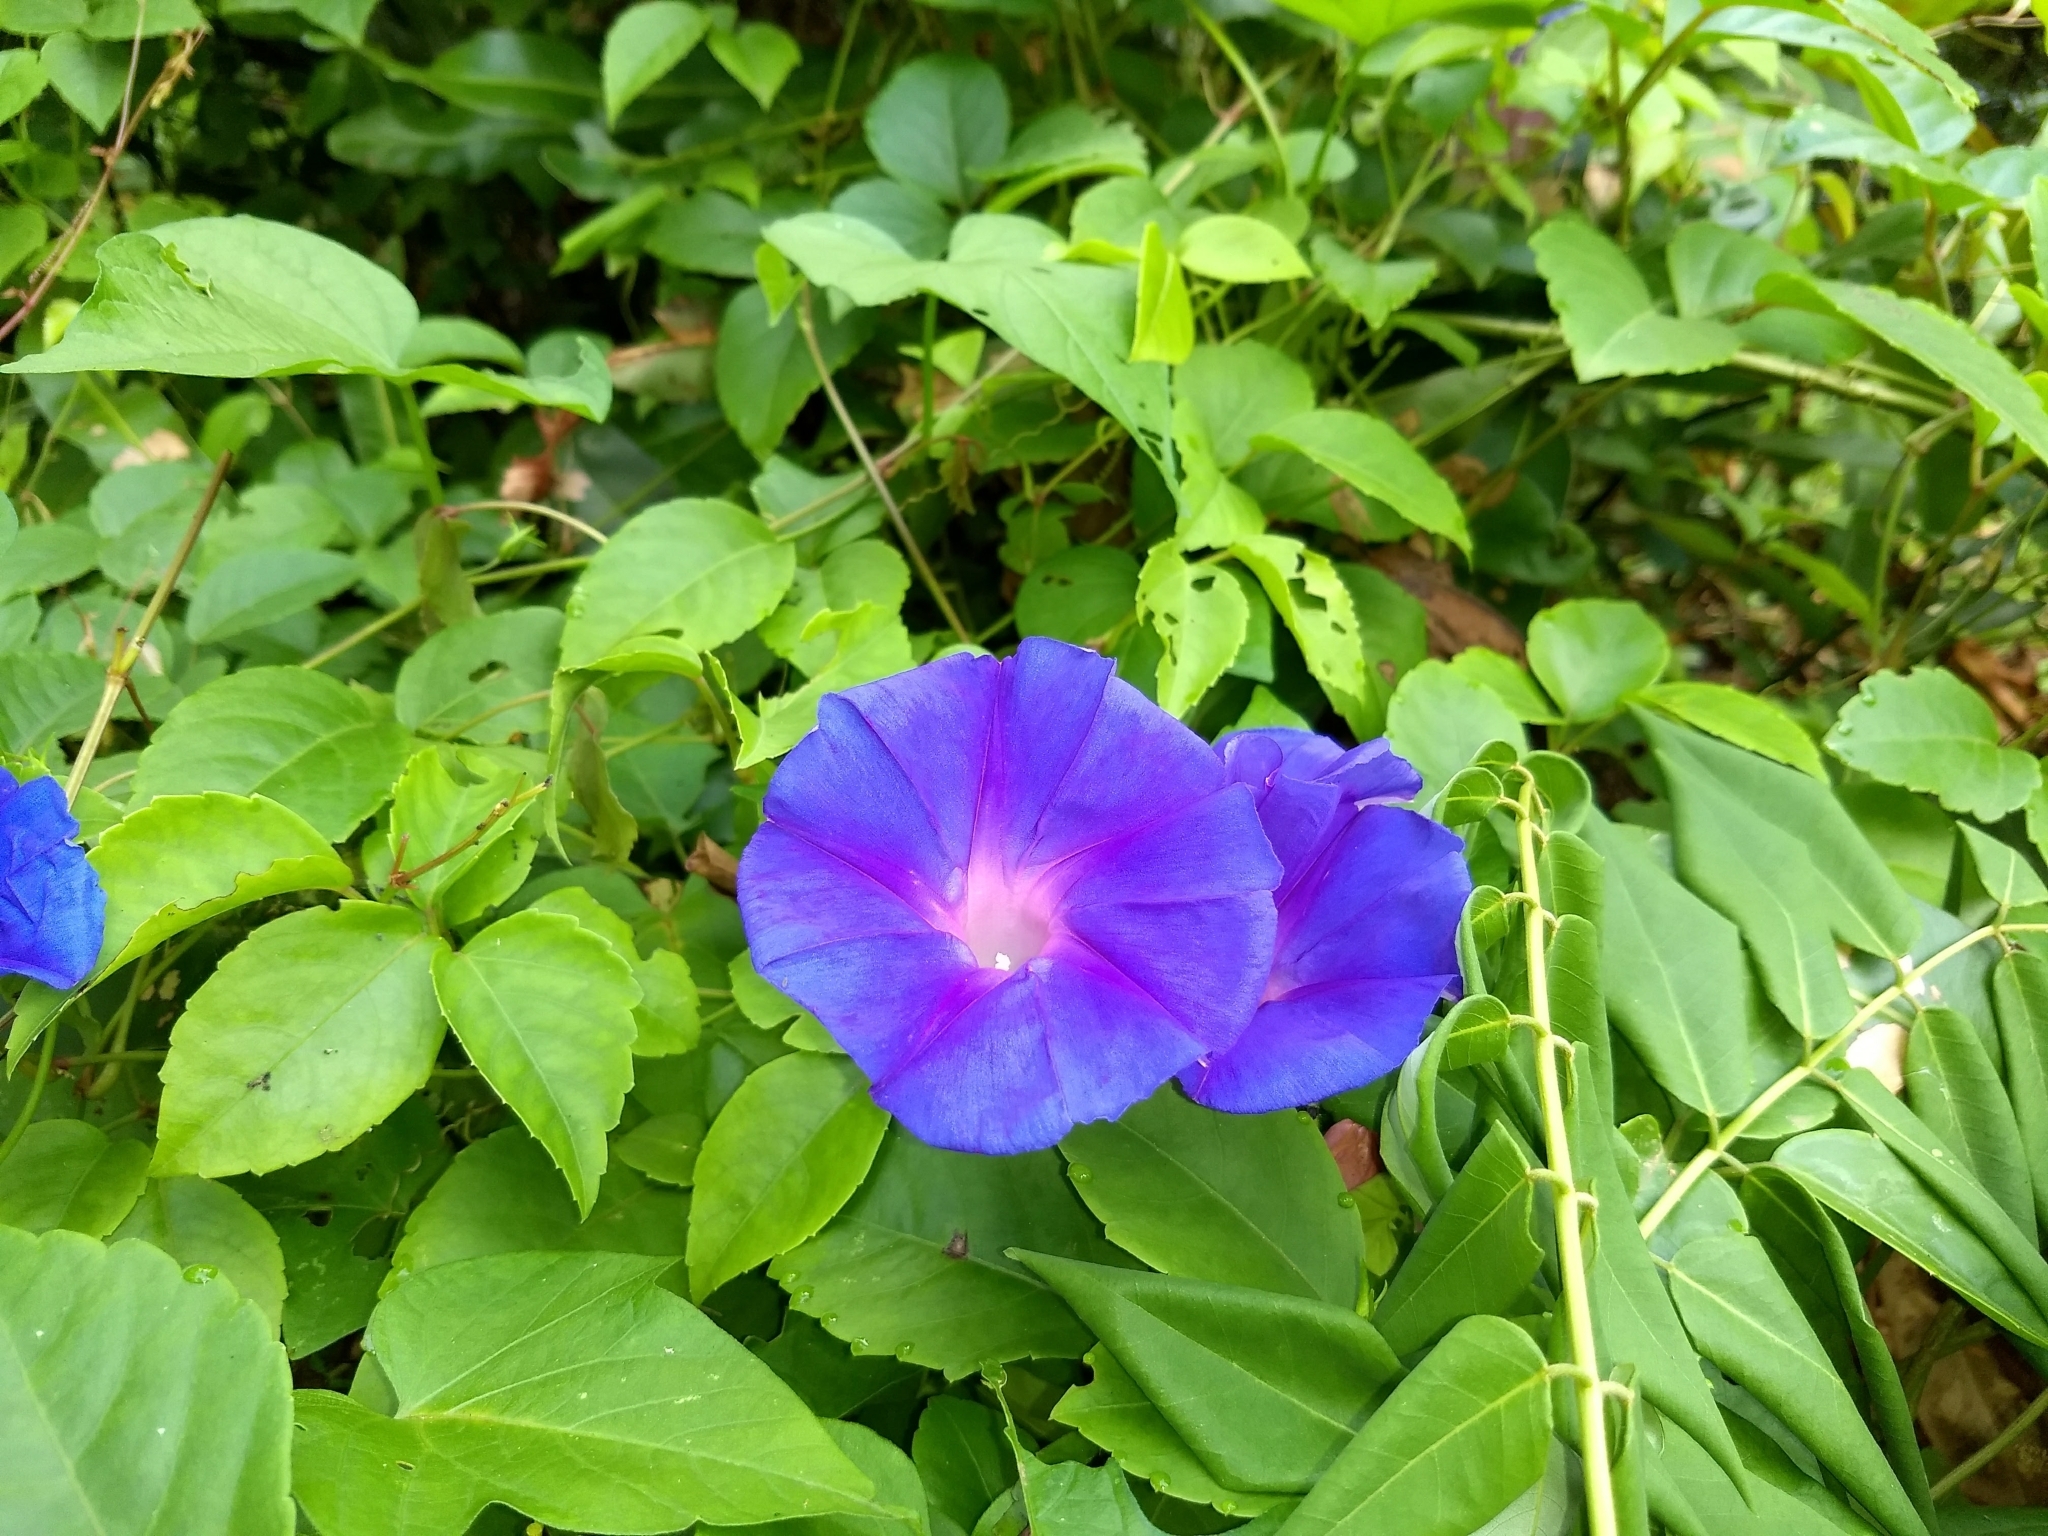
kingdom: Plantae
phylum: Tracheophyta
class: Magnoliopsida
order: Solanales
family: Convolvulaceae
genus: Ipomoea
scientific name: Ipomoea indica
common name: Blue dawnflower
